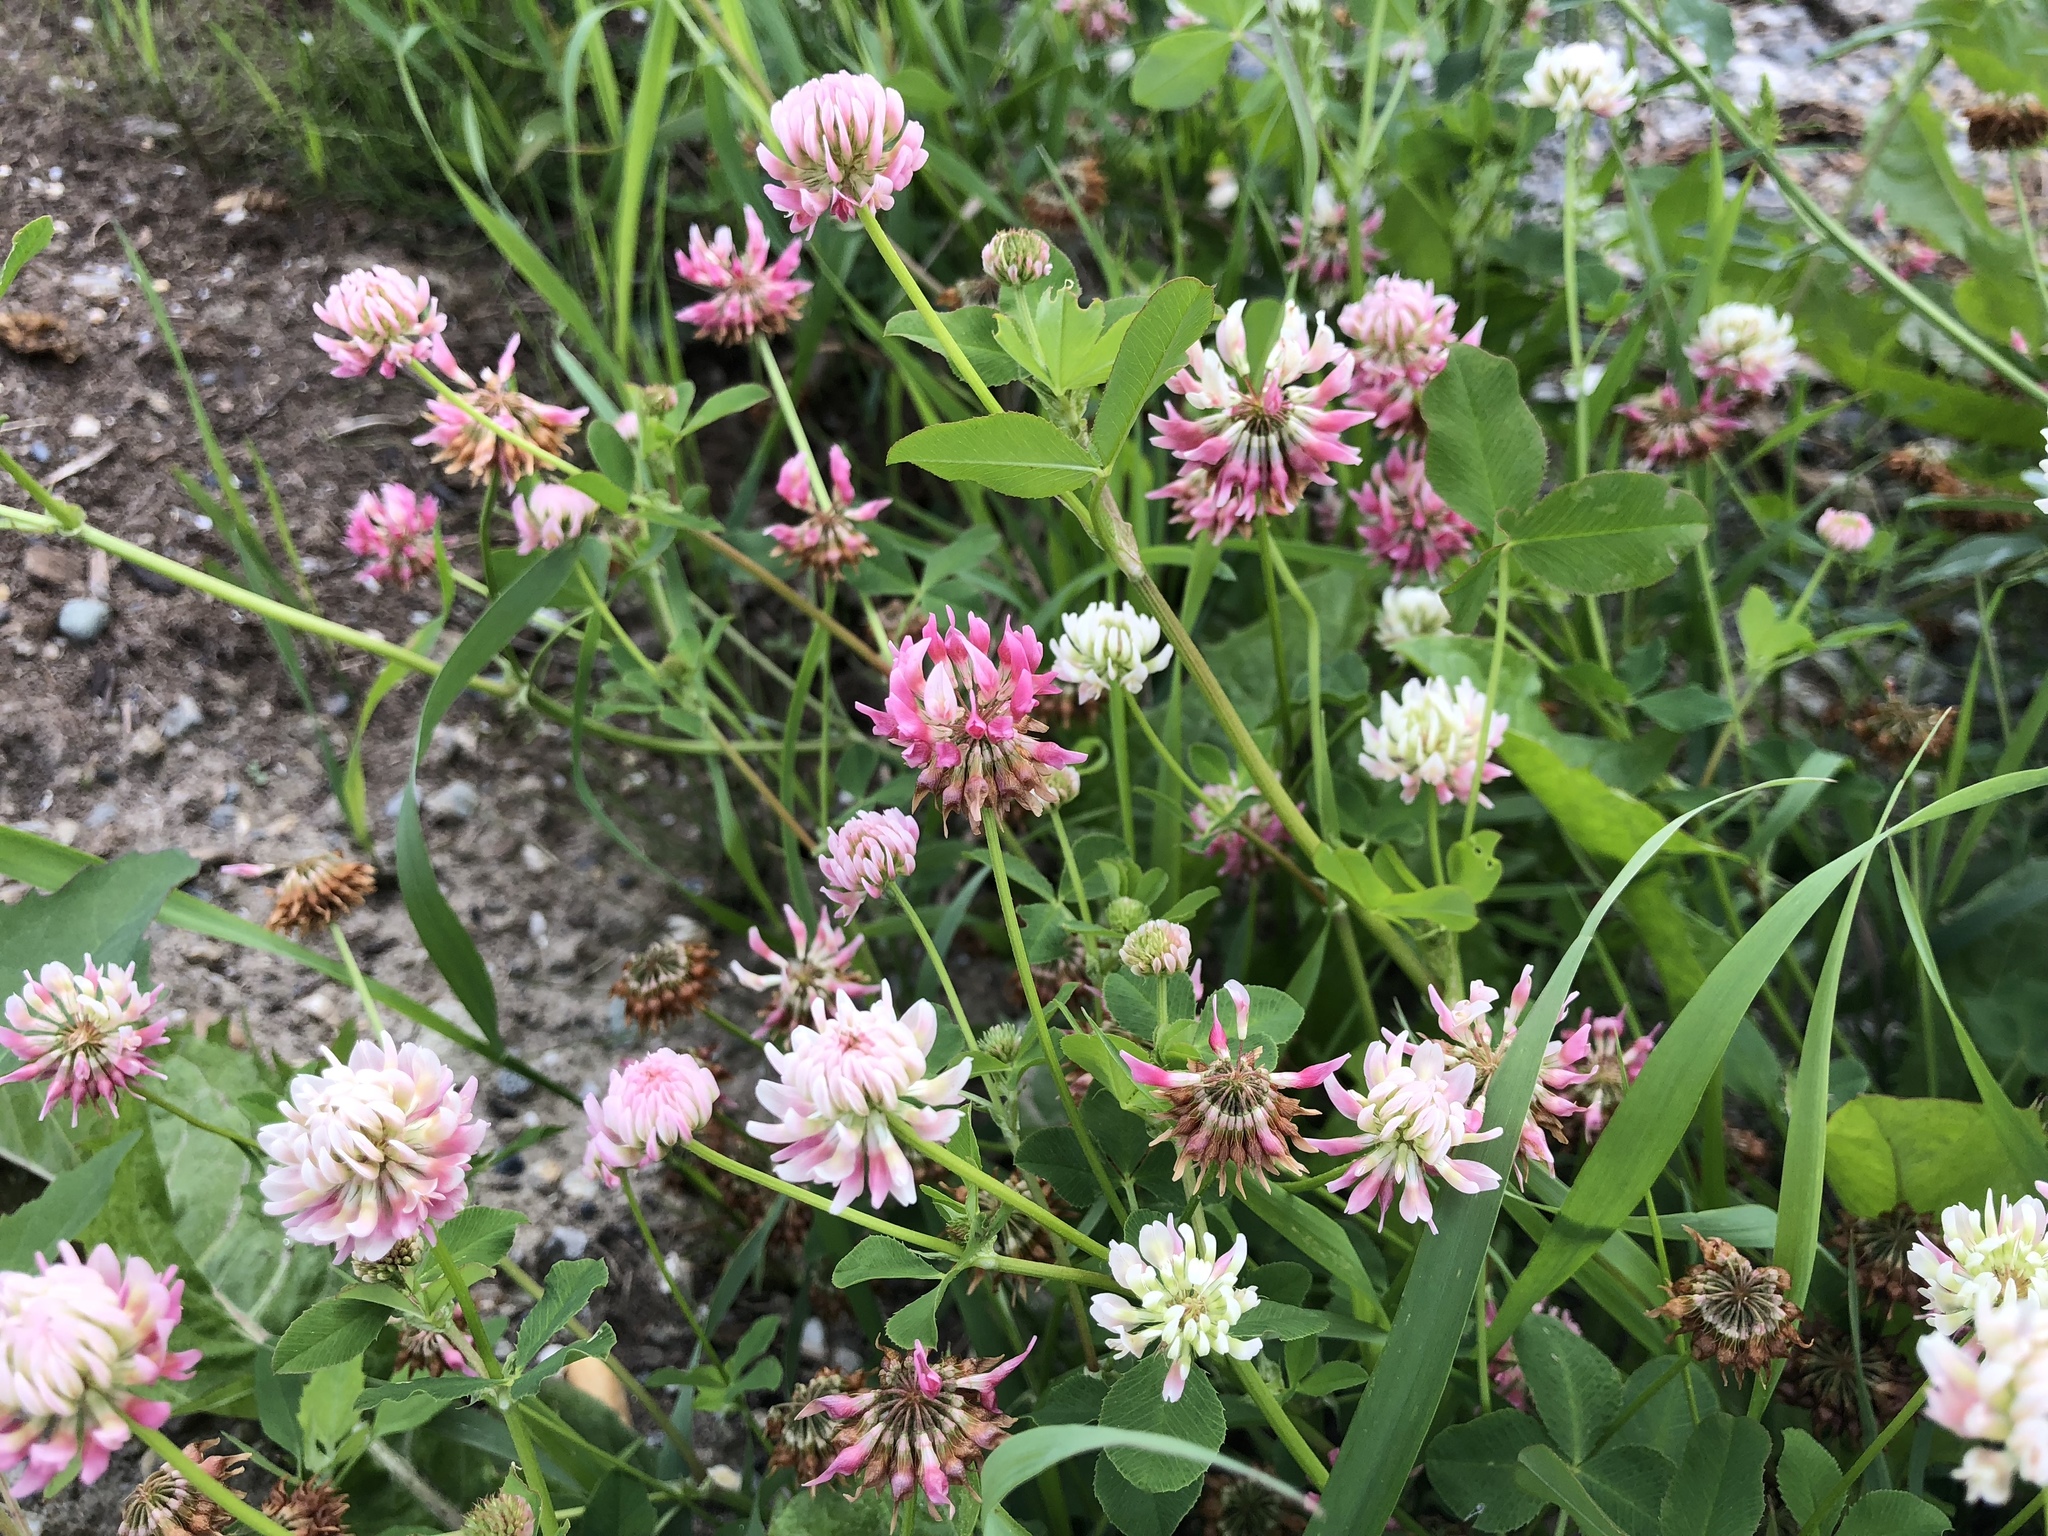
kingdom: Plantae
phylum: Tracheophyta
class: Magnoliopsida
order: Fabales
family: Fabaceae
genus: Trifolium
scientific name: Trifolium hybridum
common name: Alsike clover
